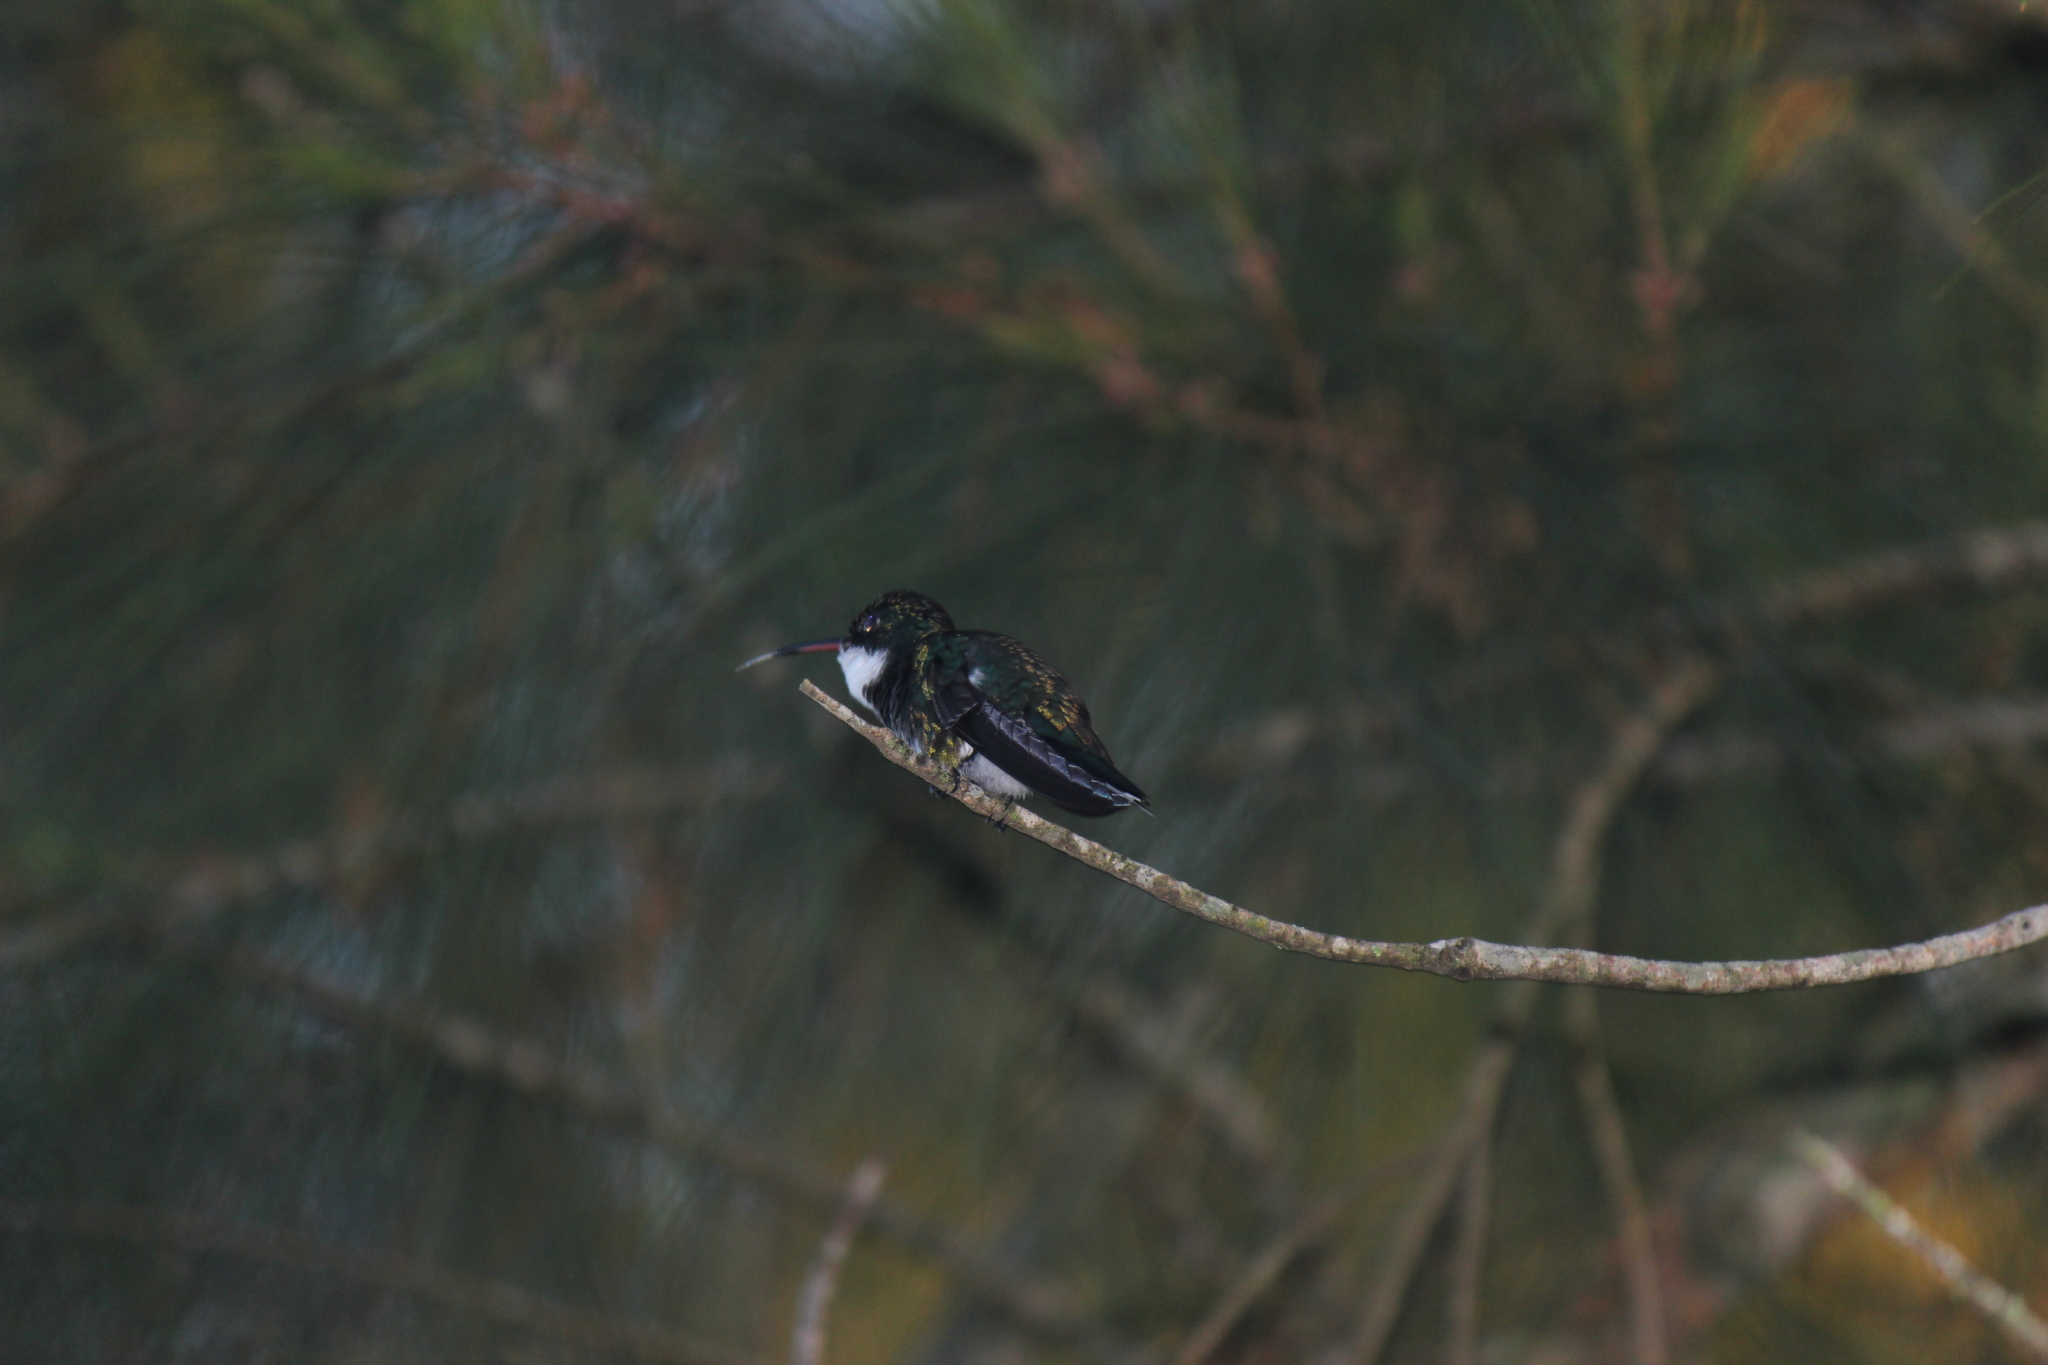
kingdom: Animalia
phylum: Chordata
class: Aves
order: Apodiformes
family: Trochilidae
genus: Leucochloris
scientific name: Leucochloris albicollis
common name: White-throated hummingbird
